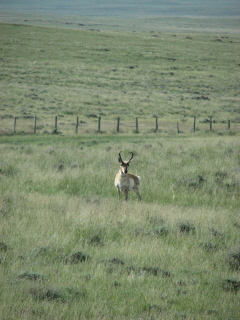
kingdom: Animalia
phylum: Chordata
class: Mammalia
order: Artiodactyla
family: Antilocapridae
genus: Antilocapra
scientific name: Antilocapra americana
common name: Pronghorn
